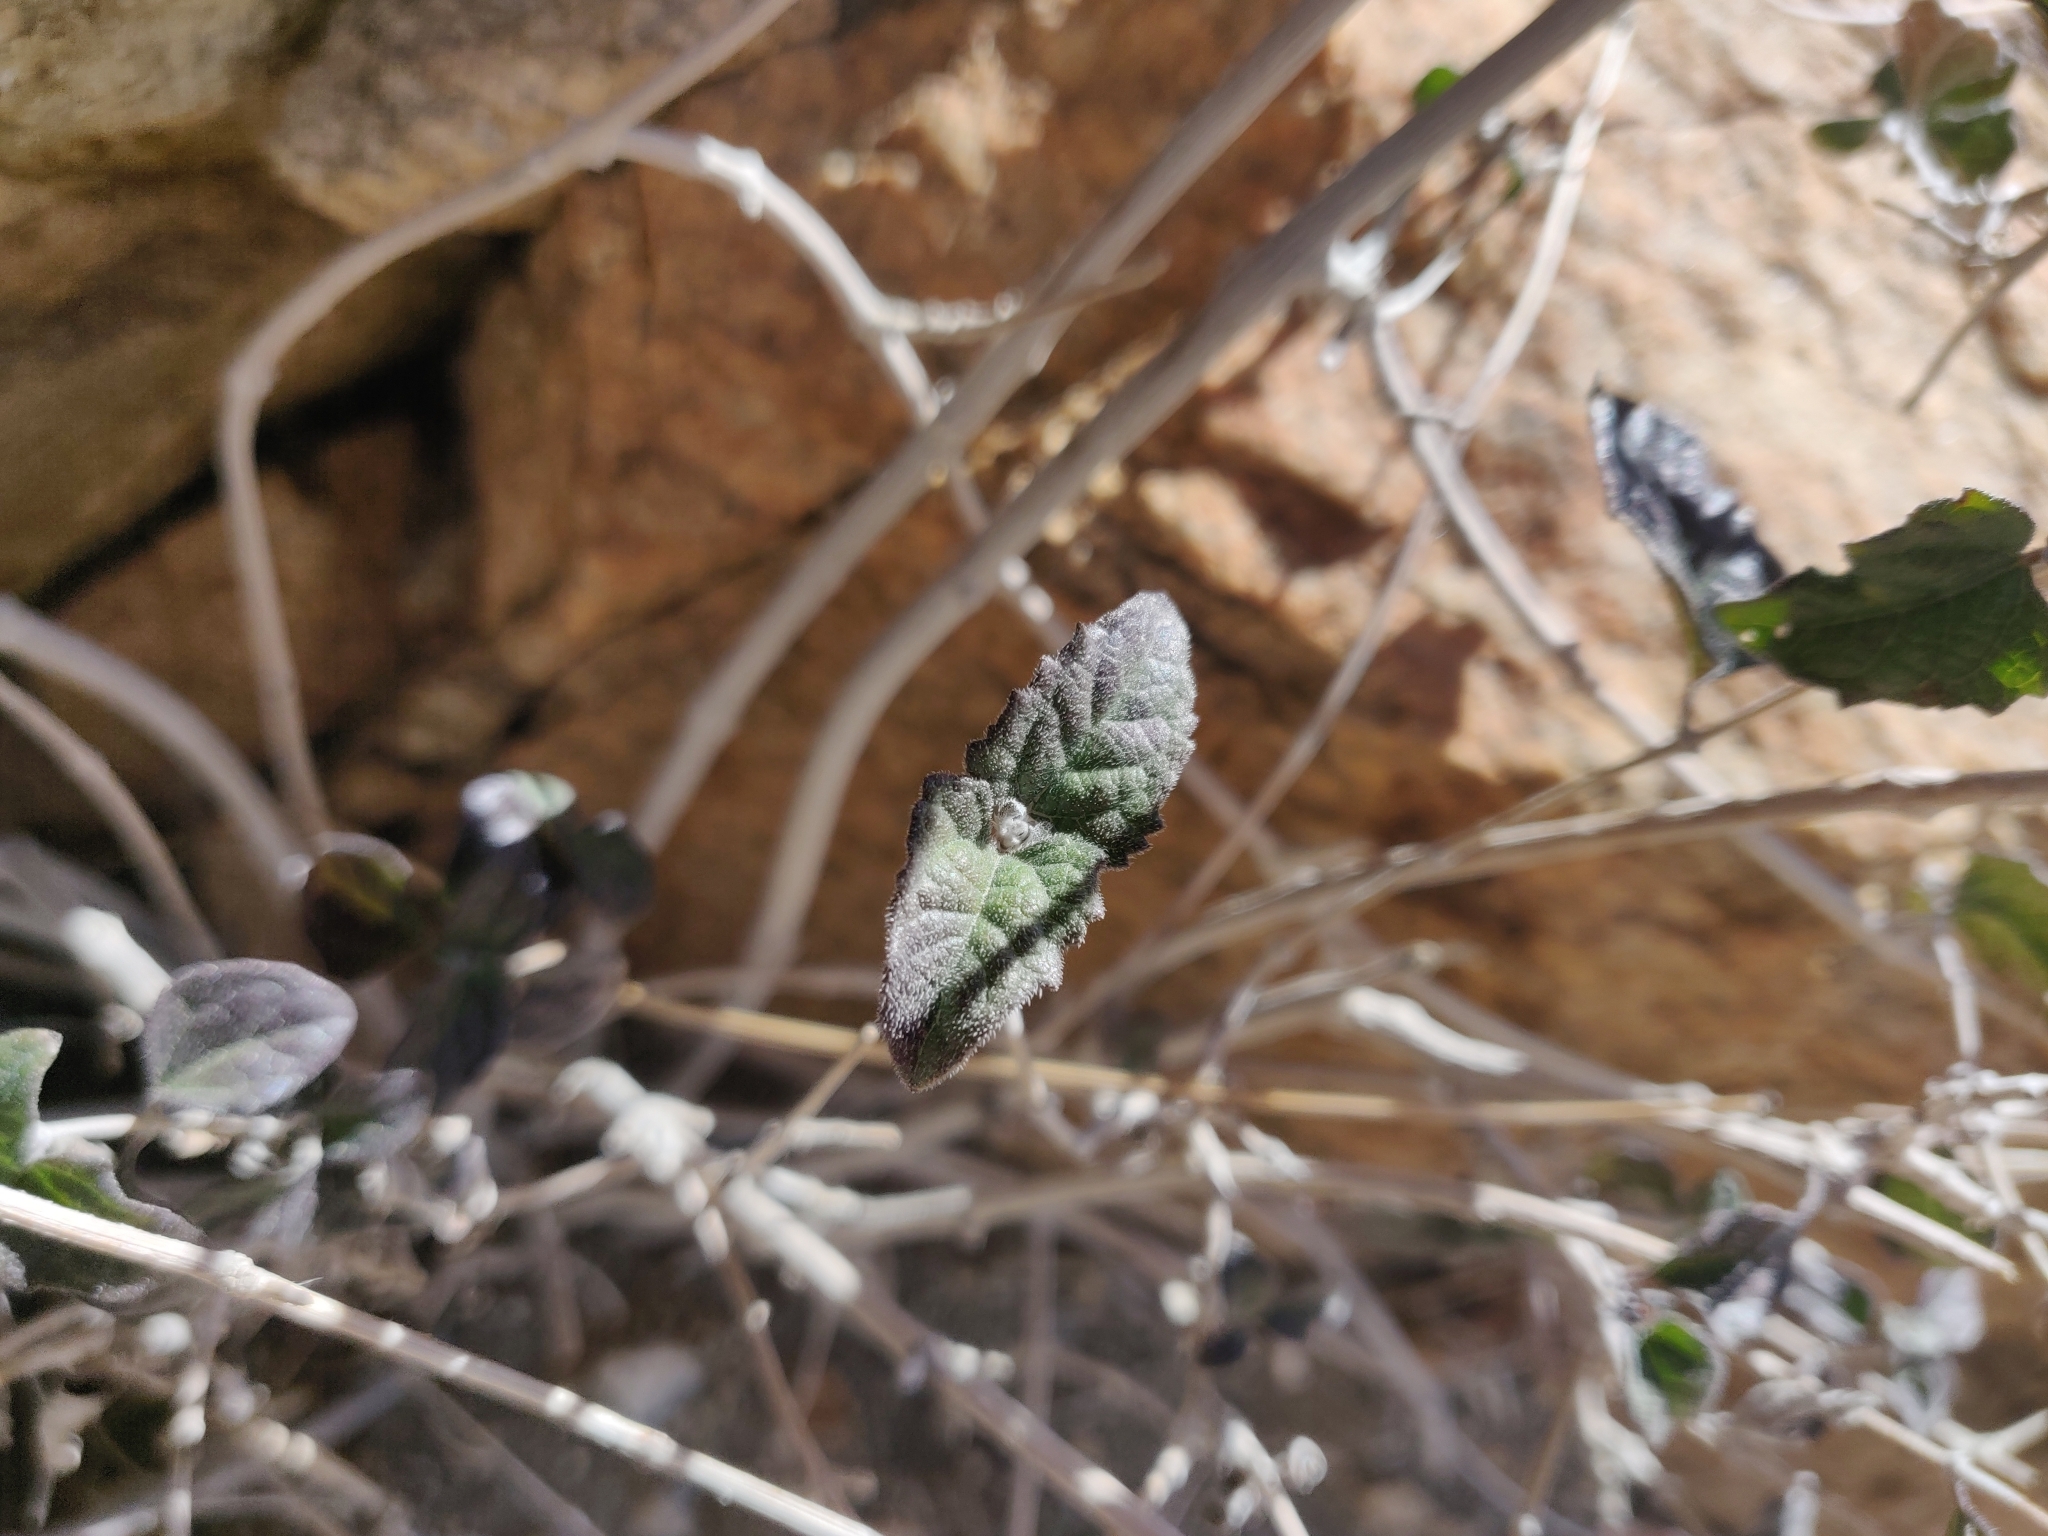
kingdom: Plantae
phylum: Tracheophyta
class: Magnoliopsida
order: Asterales
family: Asteraceae
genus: Bahiopsis
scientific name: Bahiopsis parishii
